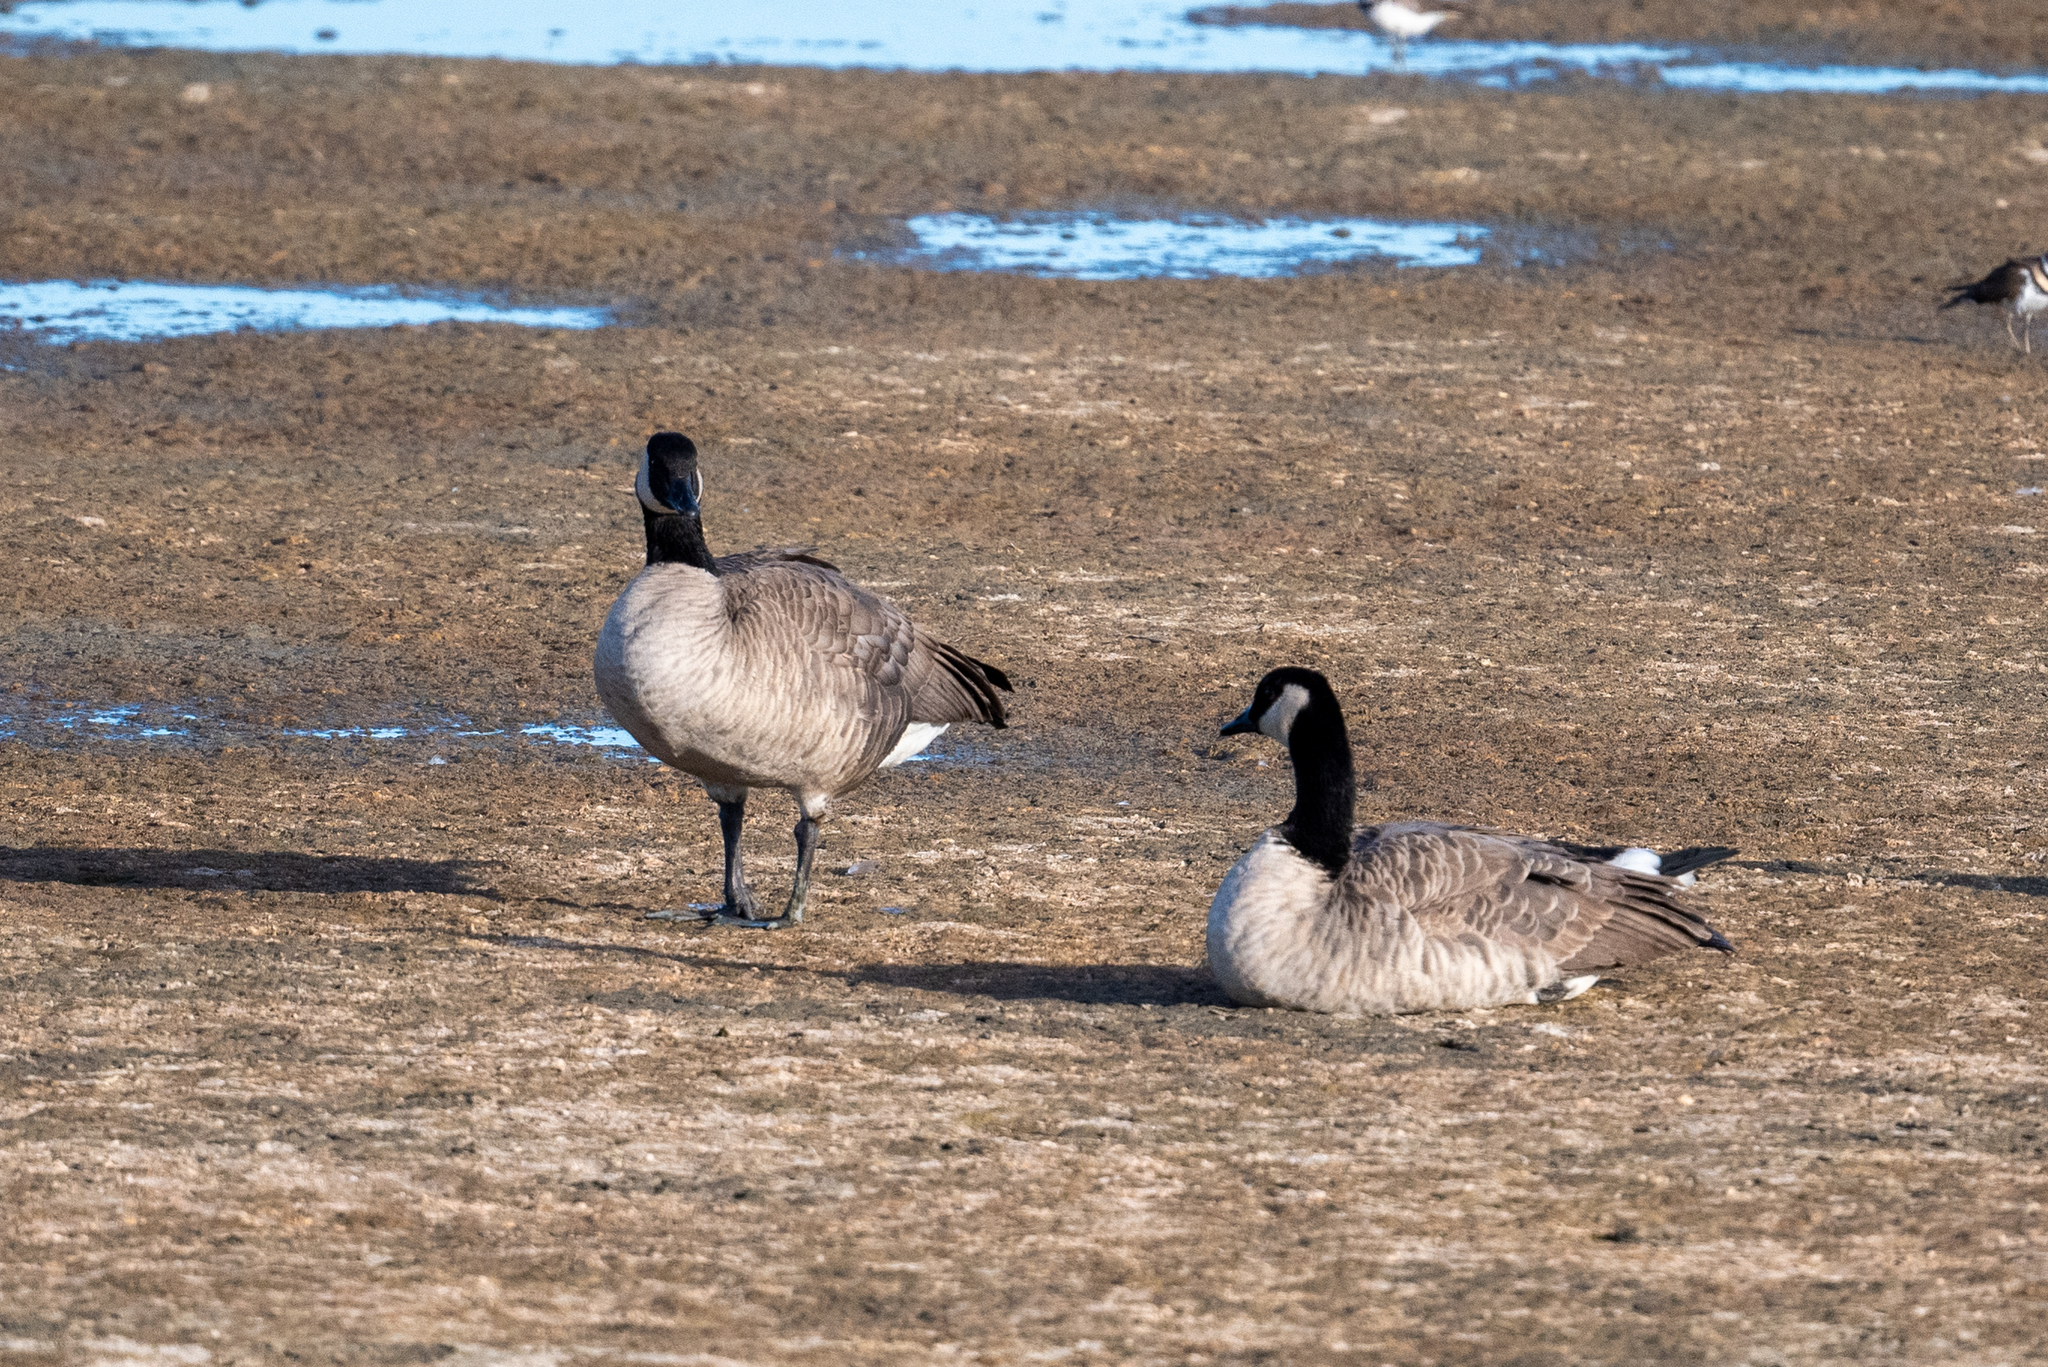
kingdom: Animalia
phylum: Chordata
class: Aves
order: Anseriformes
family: Anatidae
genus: Branta
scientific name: Branta canadensis
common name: Canada goose
